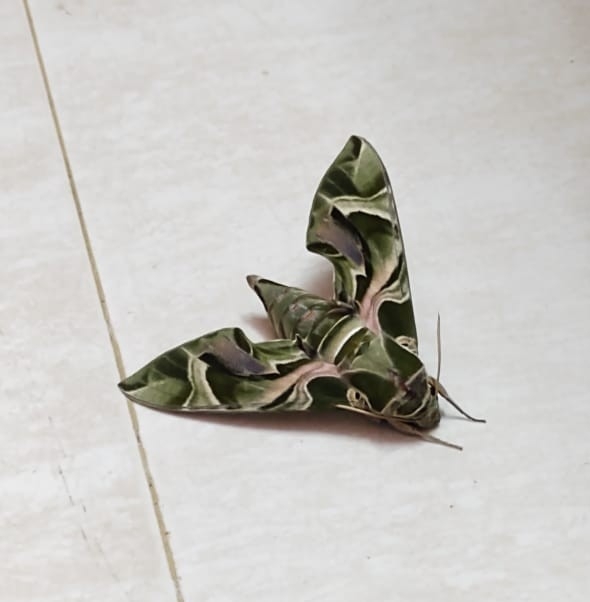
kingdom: Animalia
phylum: Arthropoda
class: Insecta
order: Lepidoptera
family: Sphingidae
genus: Daphnis
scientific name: Daphnis nerii
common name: Oleander hawk-moth
